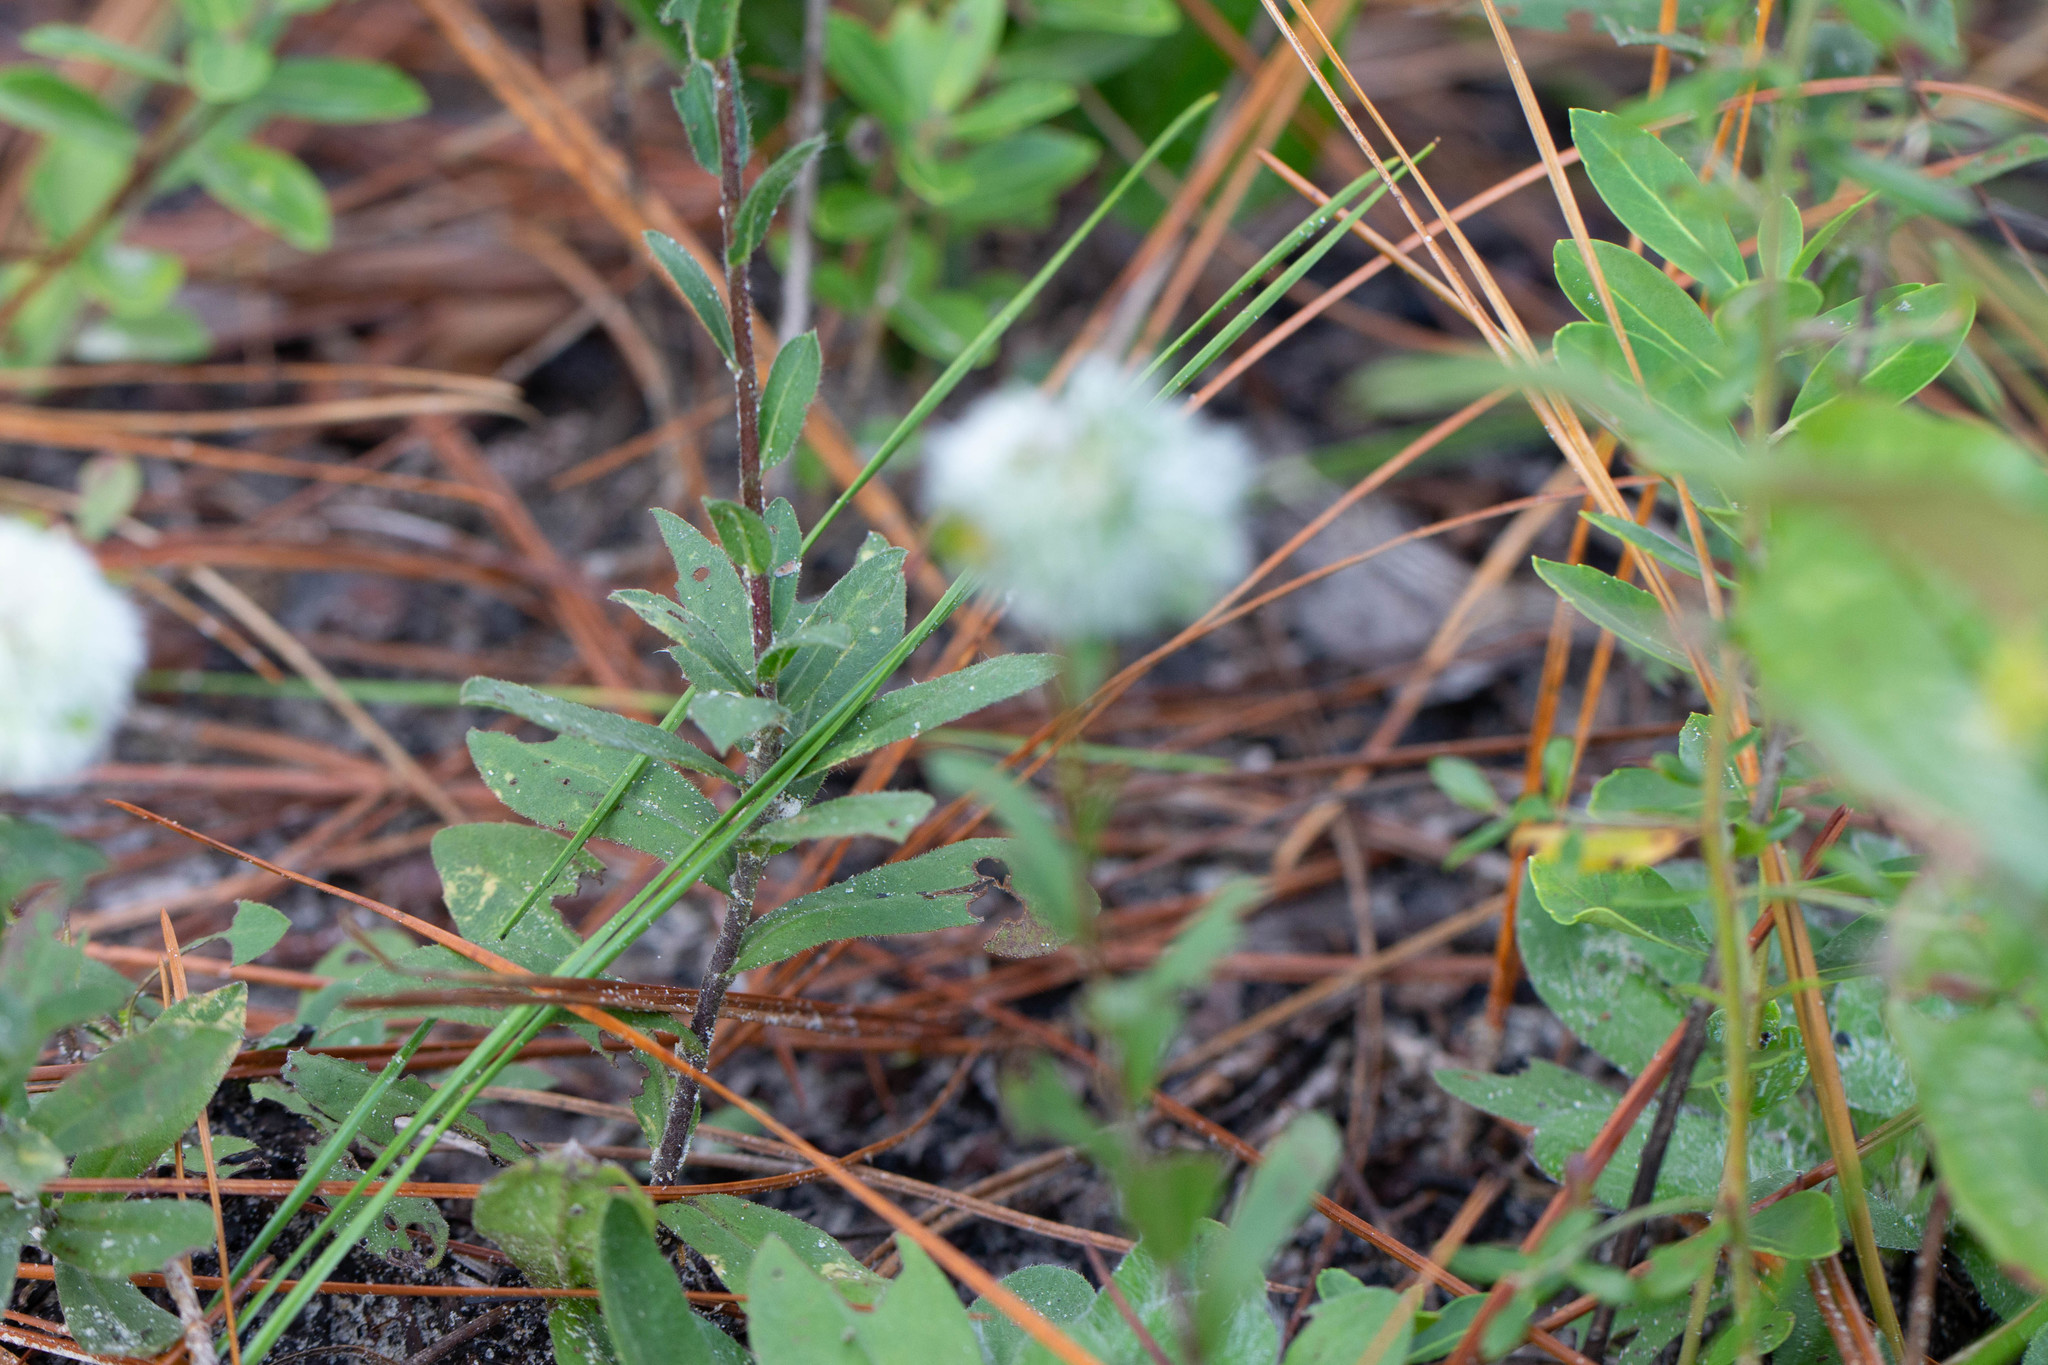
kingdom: Plantae
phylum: Tracheophyta
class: Magnoliopsida
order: Asterales
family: Asteraceae
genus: Solidago
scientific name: Solidago fistulosa
